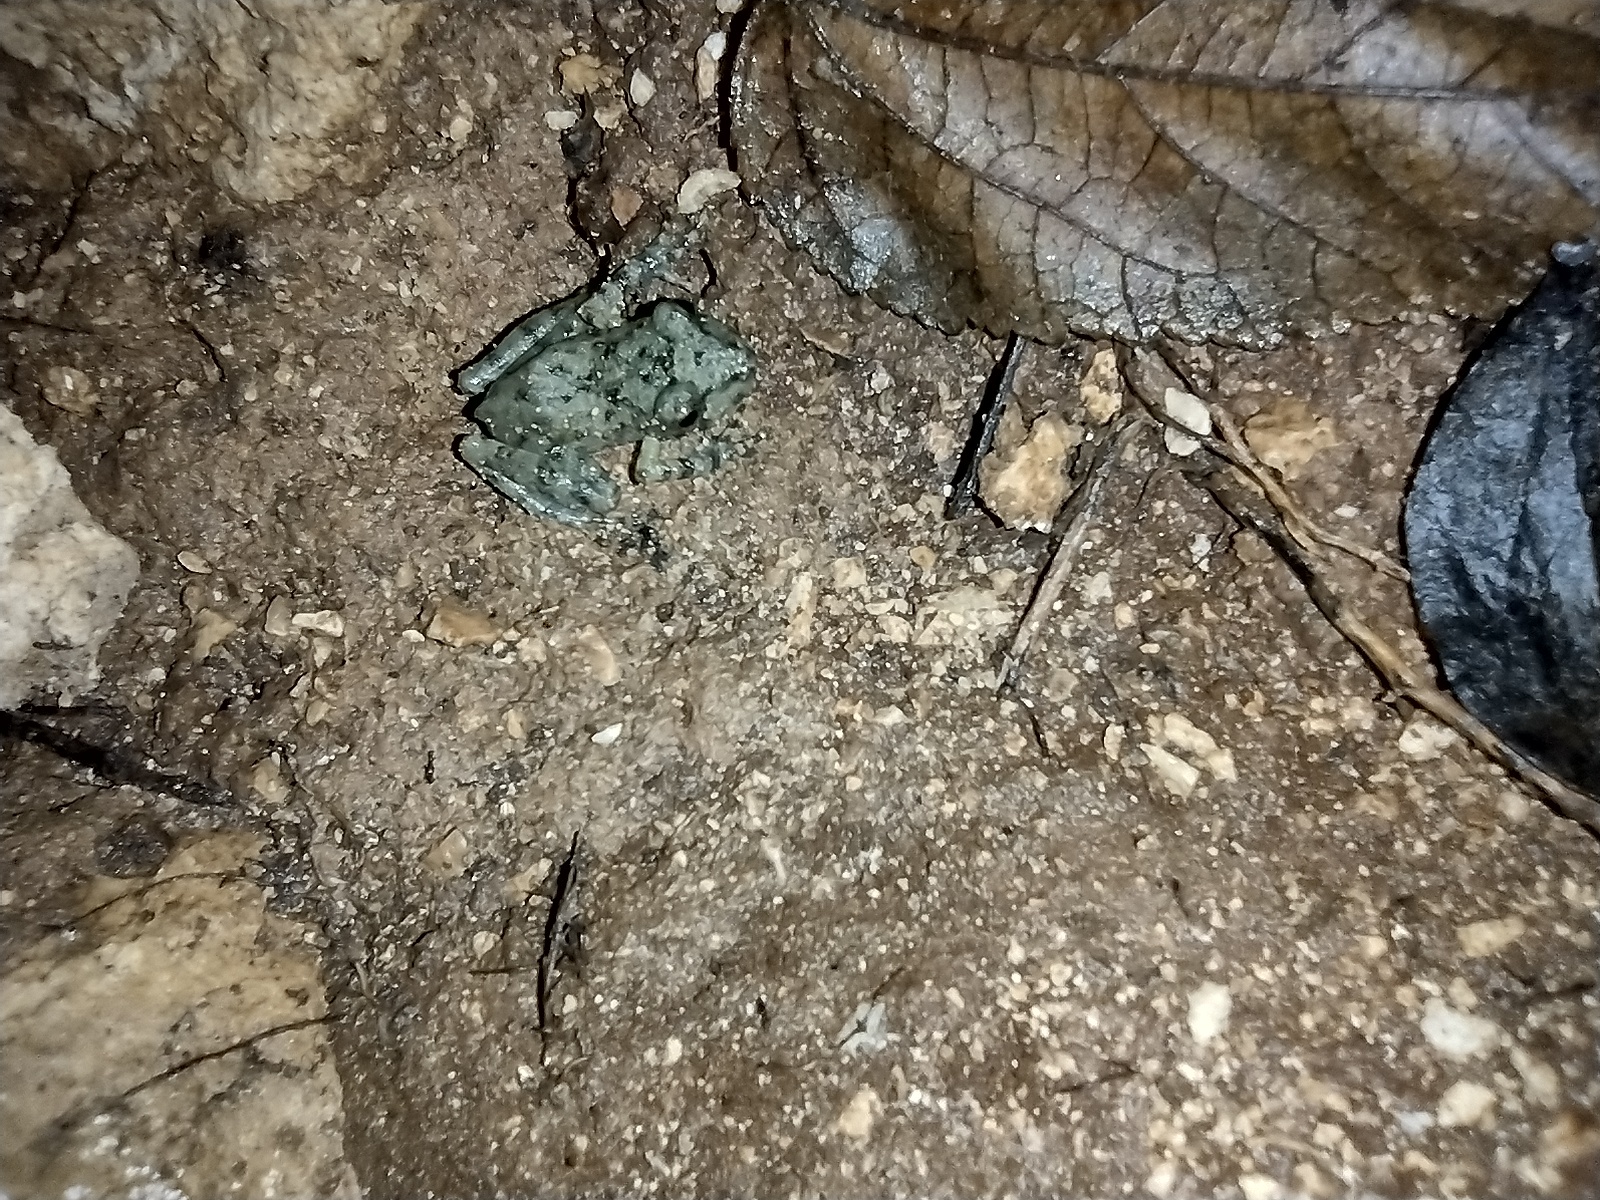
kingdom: Animalia
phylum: Chordata
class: Amphibia
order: Anura
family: Craugastoridae
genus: Craugastor
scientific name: Craugastor yucatanensis
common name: Yucatan rainfrog
